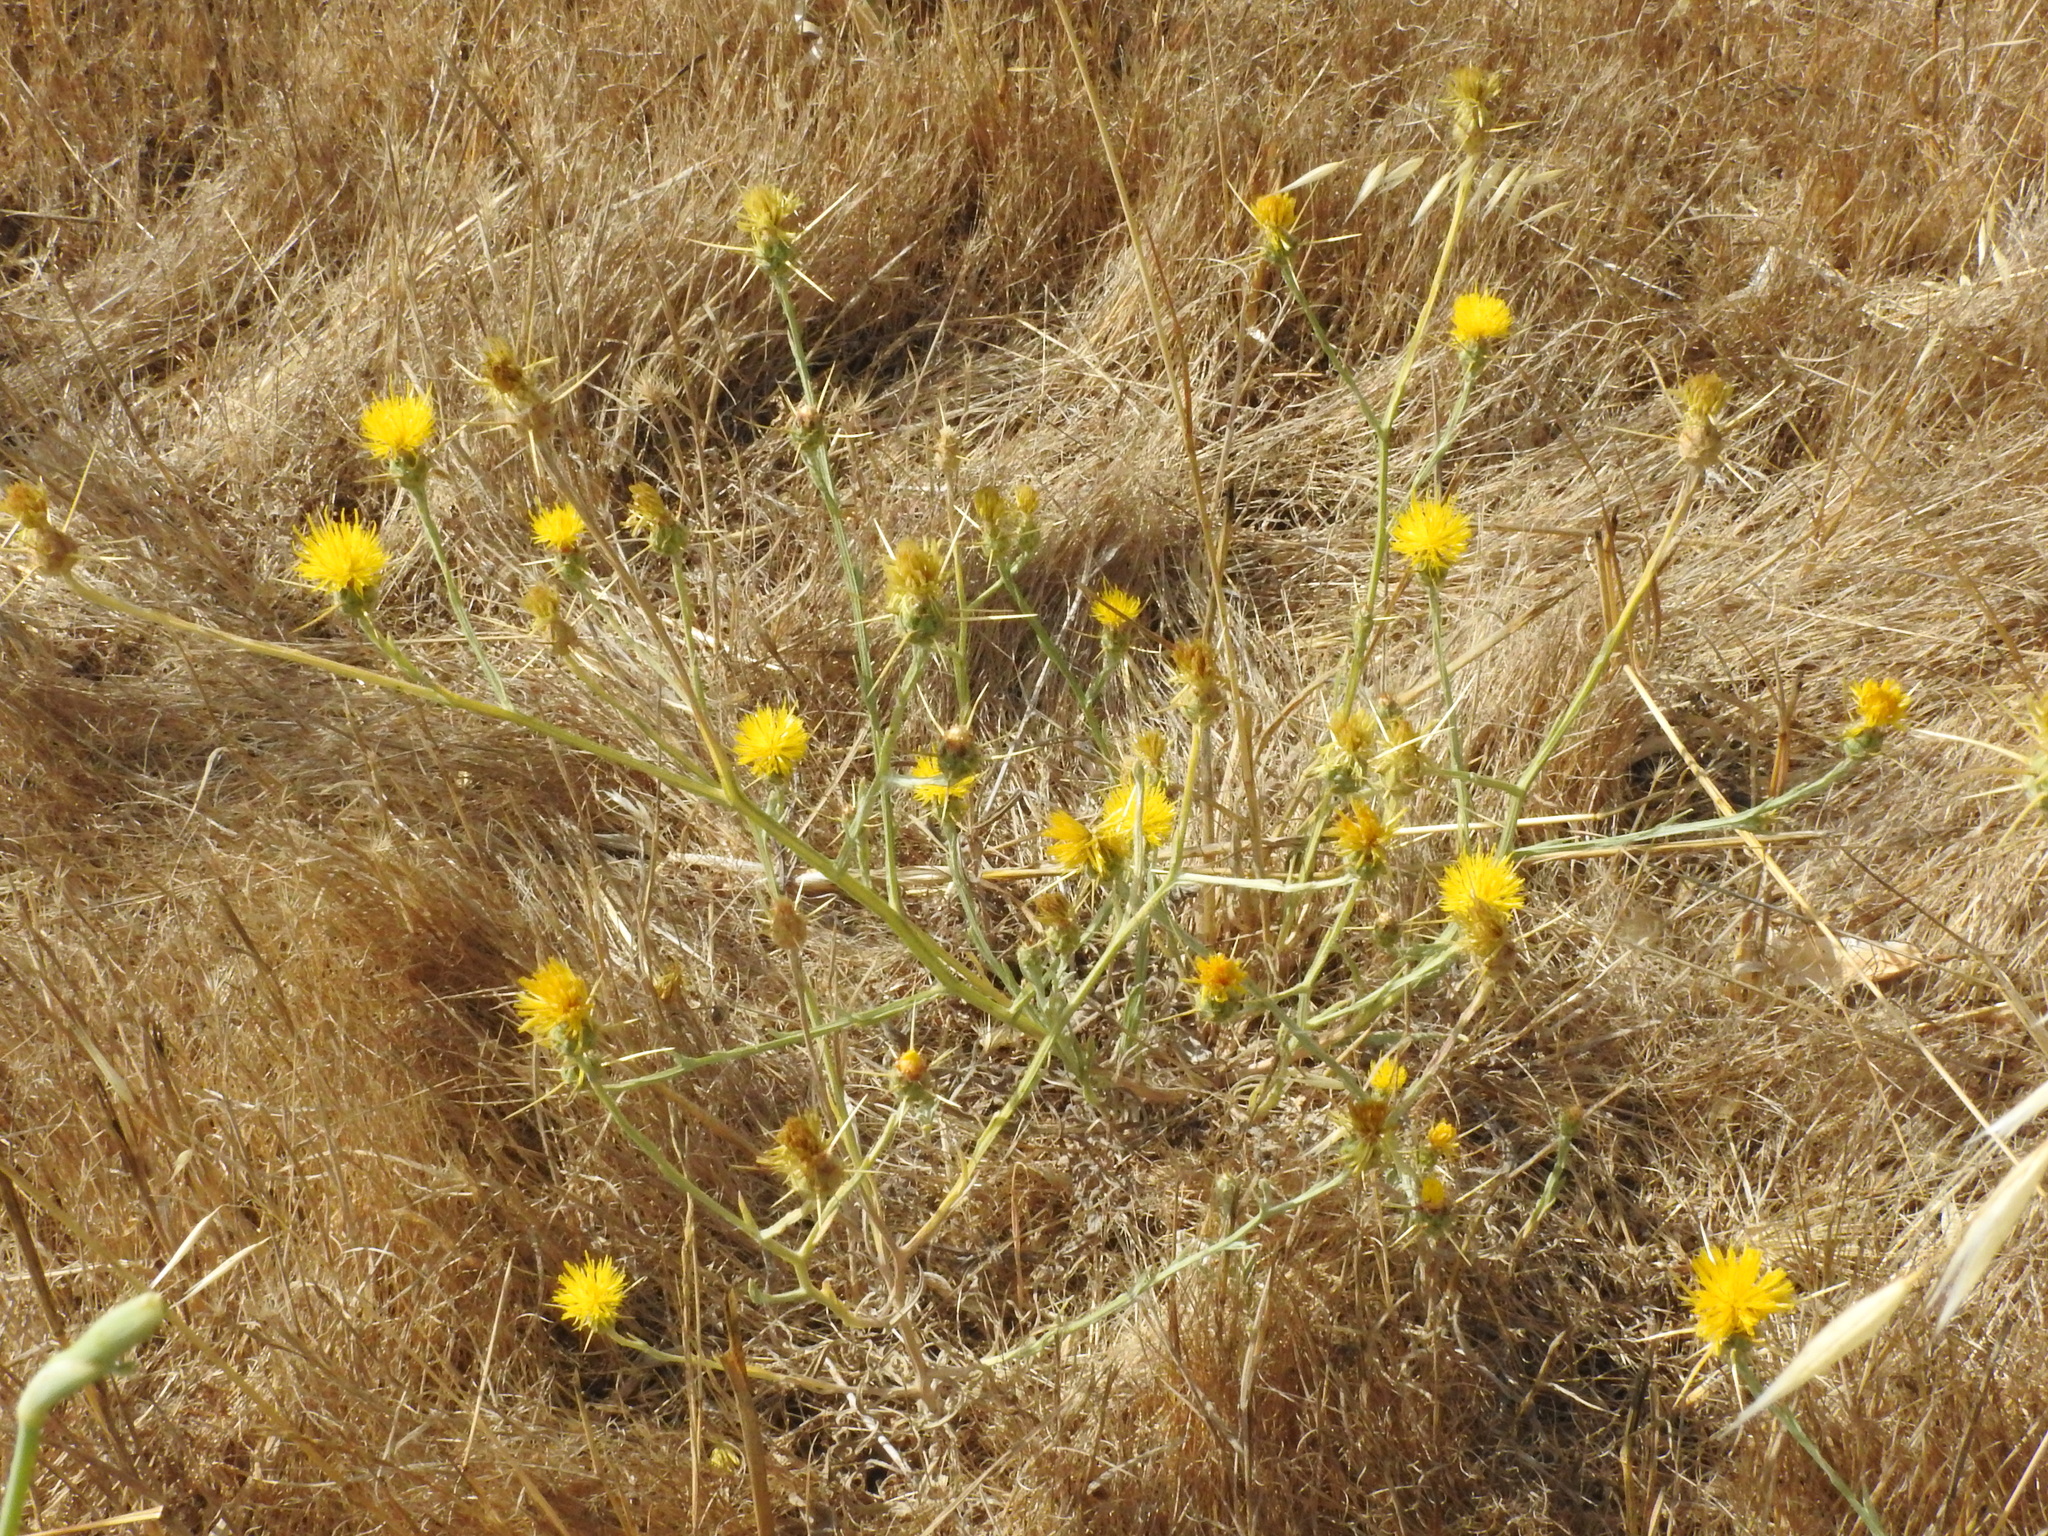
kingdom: Plantae
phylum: Tracheophyta
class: Magnoliopsida
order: Asterales
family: Asteraceae
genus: Centaurea
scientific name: Centaurea solstitialis
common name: Yellow star-thistle
